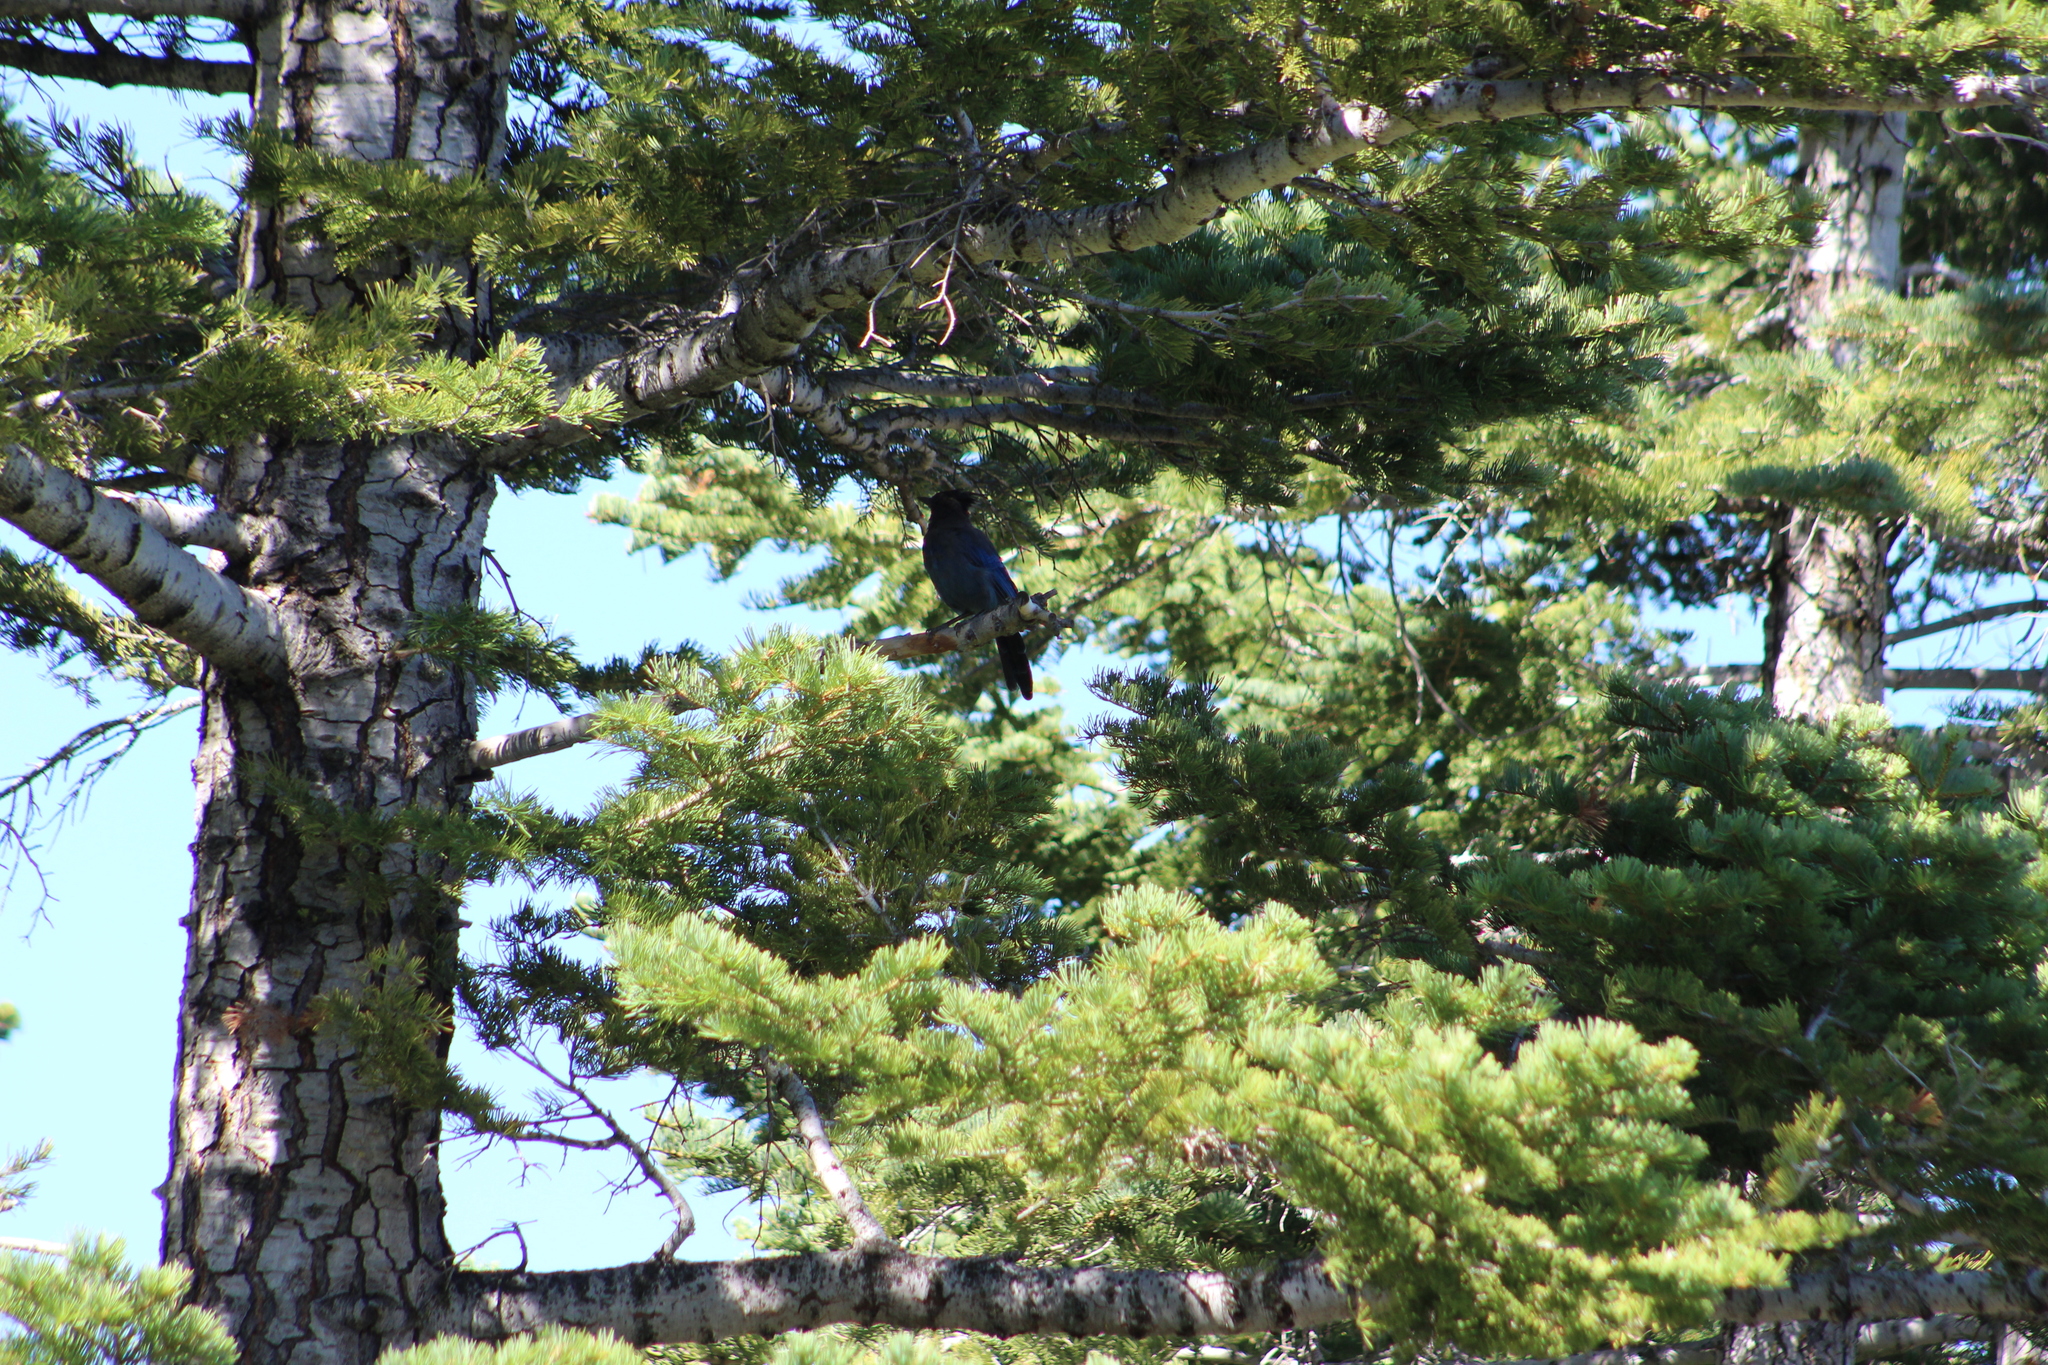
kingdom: Animalia
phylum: Chordata
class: Aves
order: Passeriformes
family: Corvidae
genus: Cyanocitta
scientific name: Cyanocitta stelleri
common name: Steller's jay
